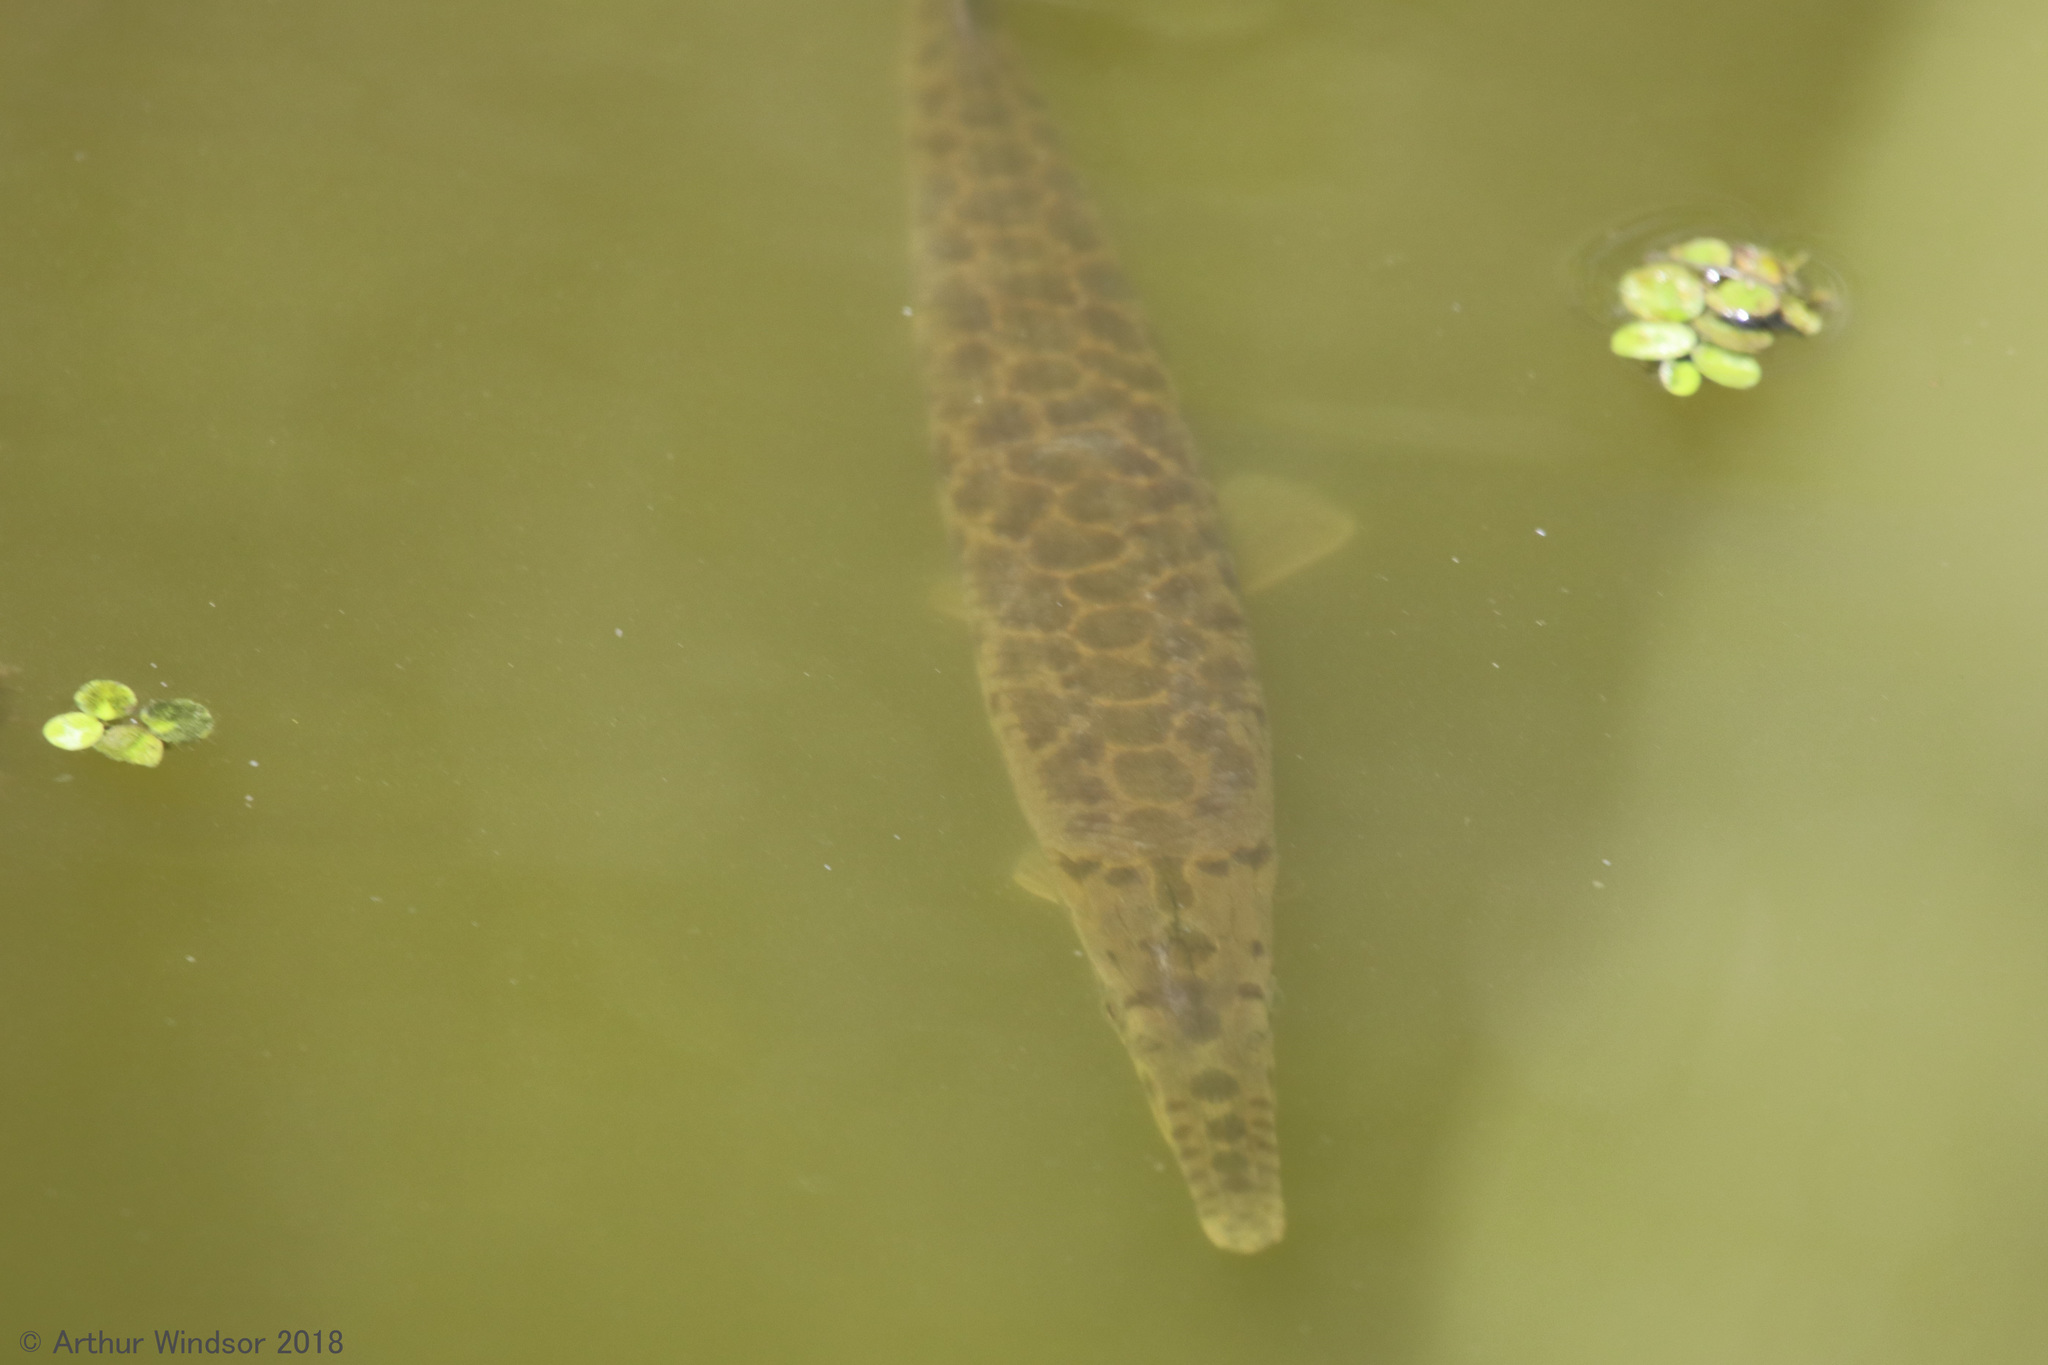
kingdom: Animalia
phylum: Chordata
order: Lepisosteiformes
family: Lepisosteidae
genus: Lepisosteus
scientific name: Lepisosteus platyrhincus
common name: Florida gar
